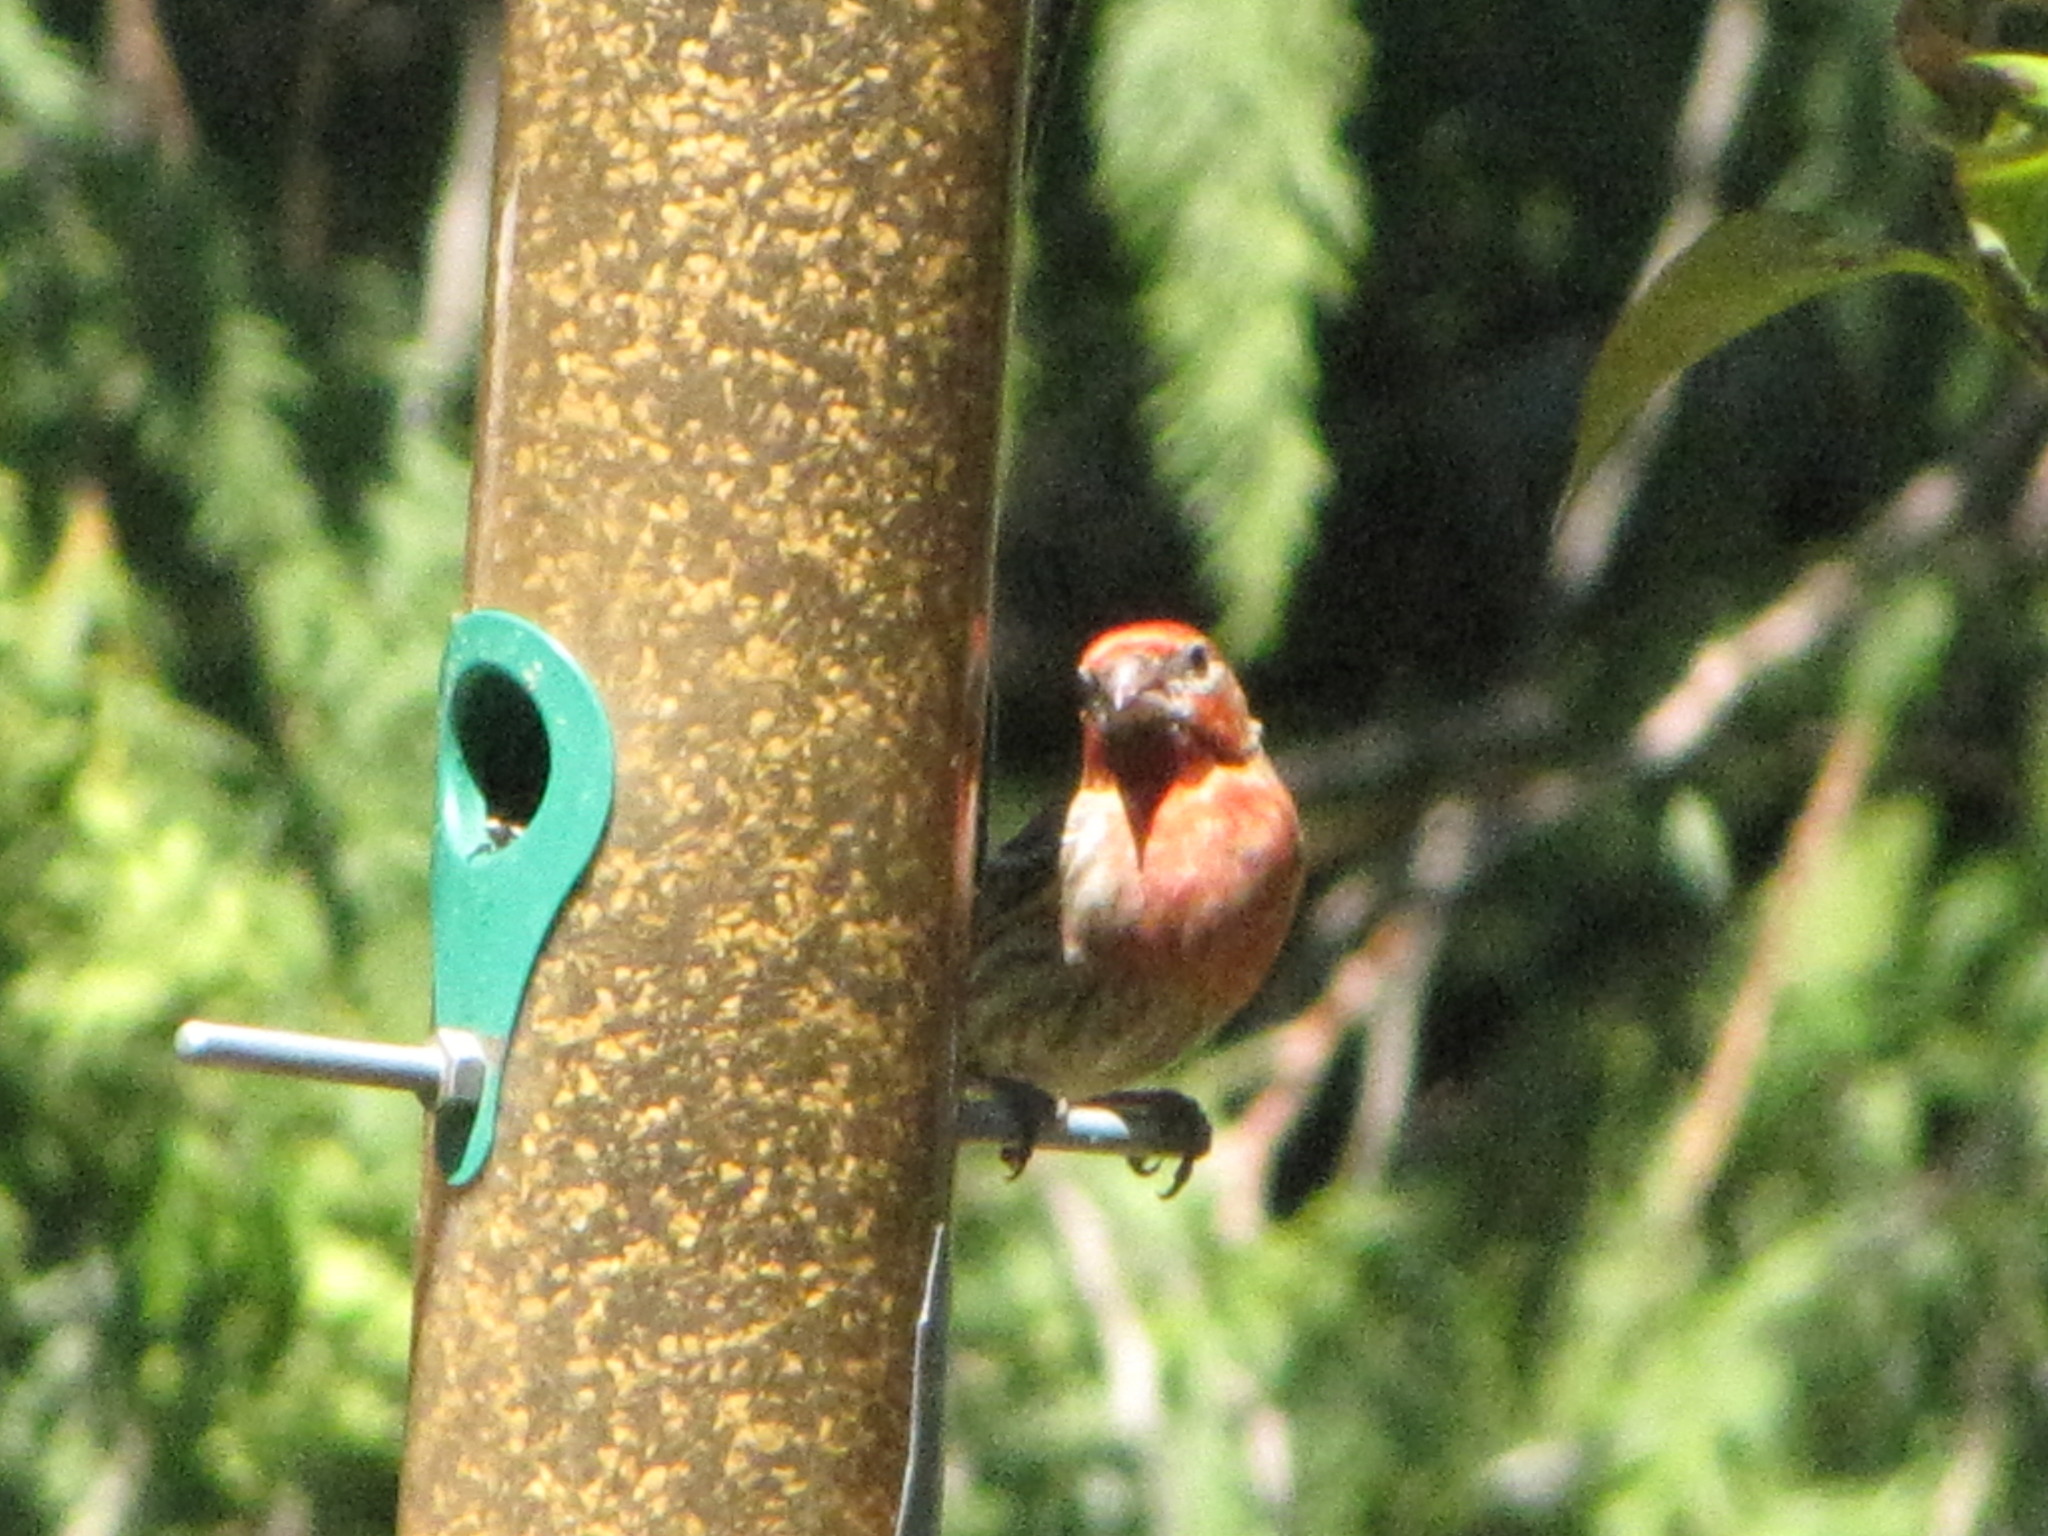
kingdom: Animalia
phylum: Chordata
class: Aves
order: Passeriformes
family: Fringillidae
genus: Haemorhous
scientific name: Haemorhous mexicanus
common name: House finch
